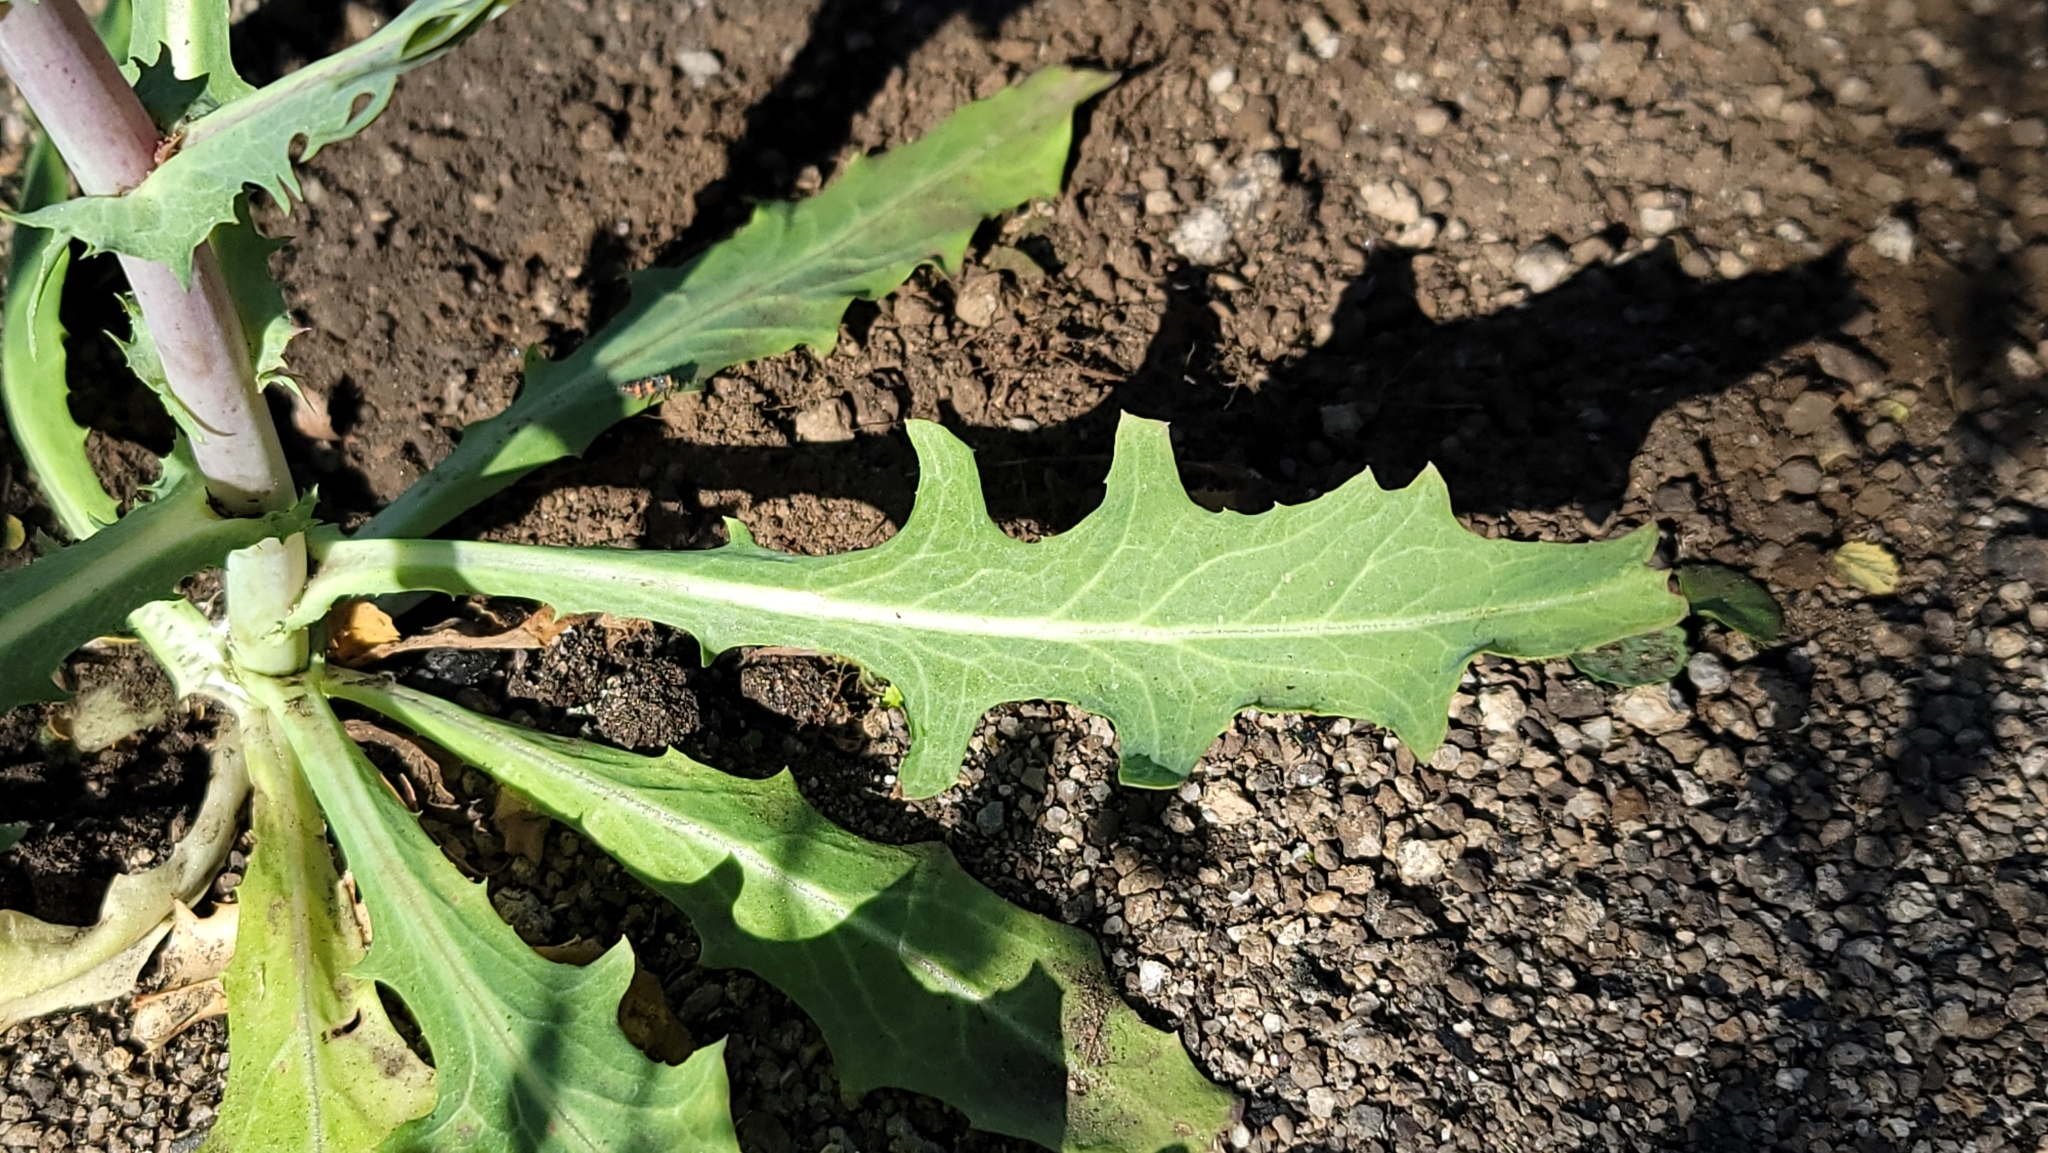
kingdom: Plantae
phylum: Tracheophyta
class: Magnoliopsida
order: Asterales
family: Asteraceae
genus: Rafinesquia
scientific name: Rafinesquia californica
